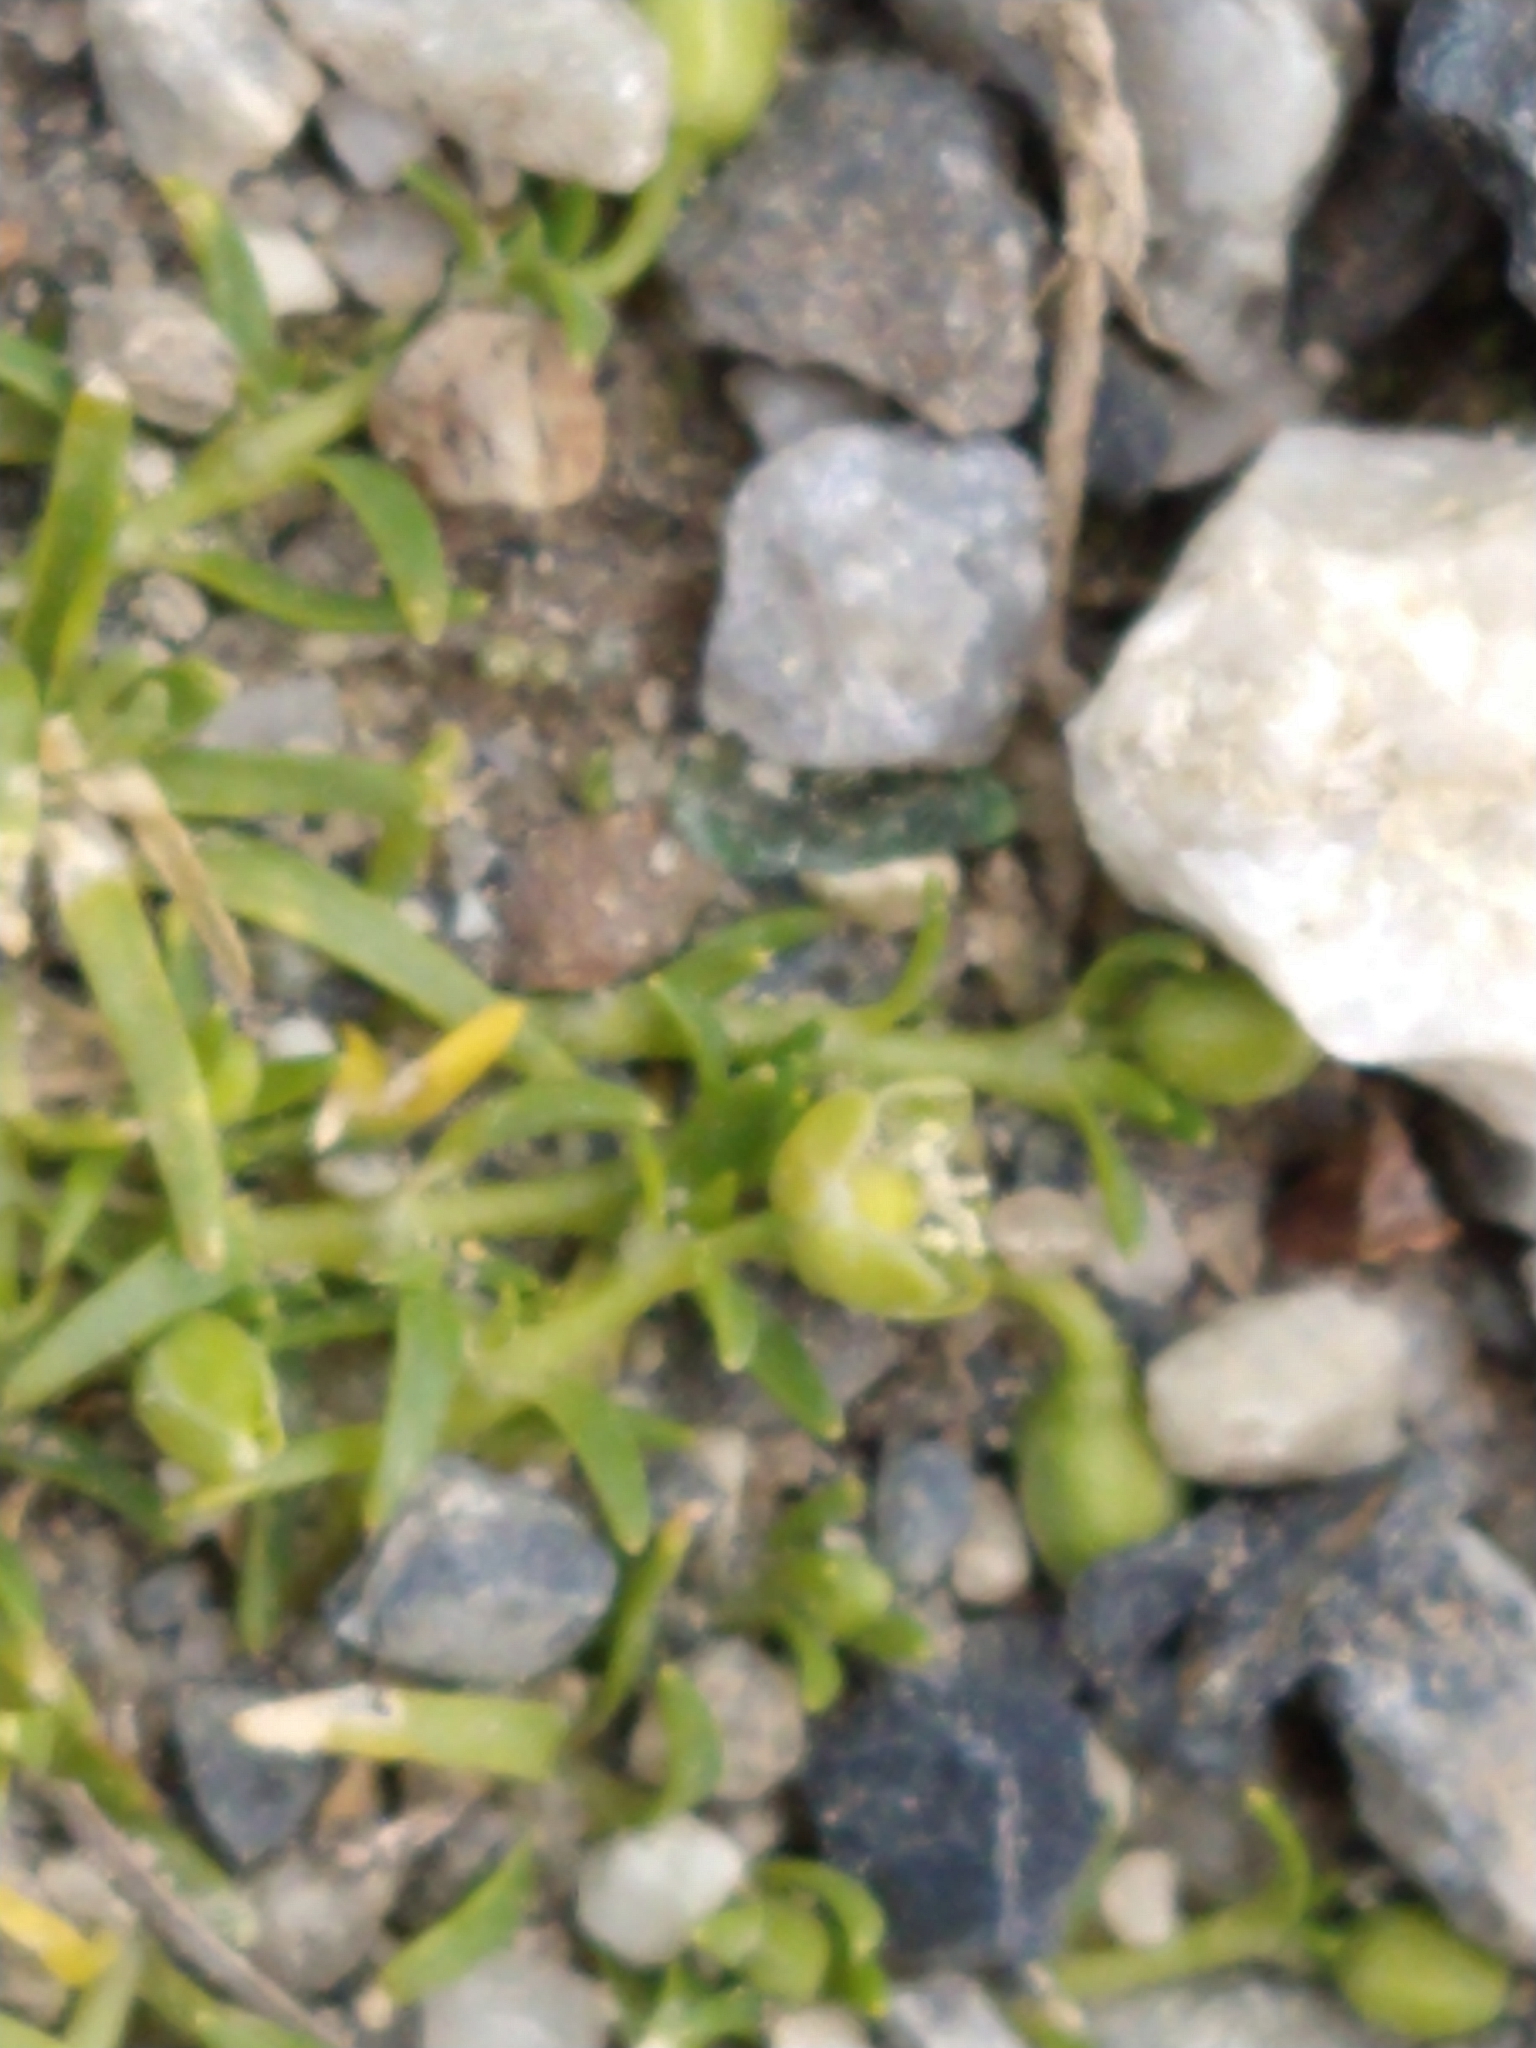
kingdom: Plantae
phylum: Tracheophyta
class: Magnoliopsida
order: Caryophyllales
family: Caryophyllaceae
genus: Sagina
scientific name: Sagina procumbens
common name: Procumbent pearlwort
